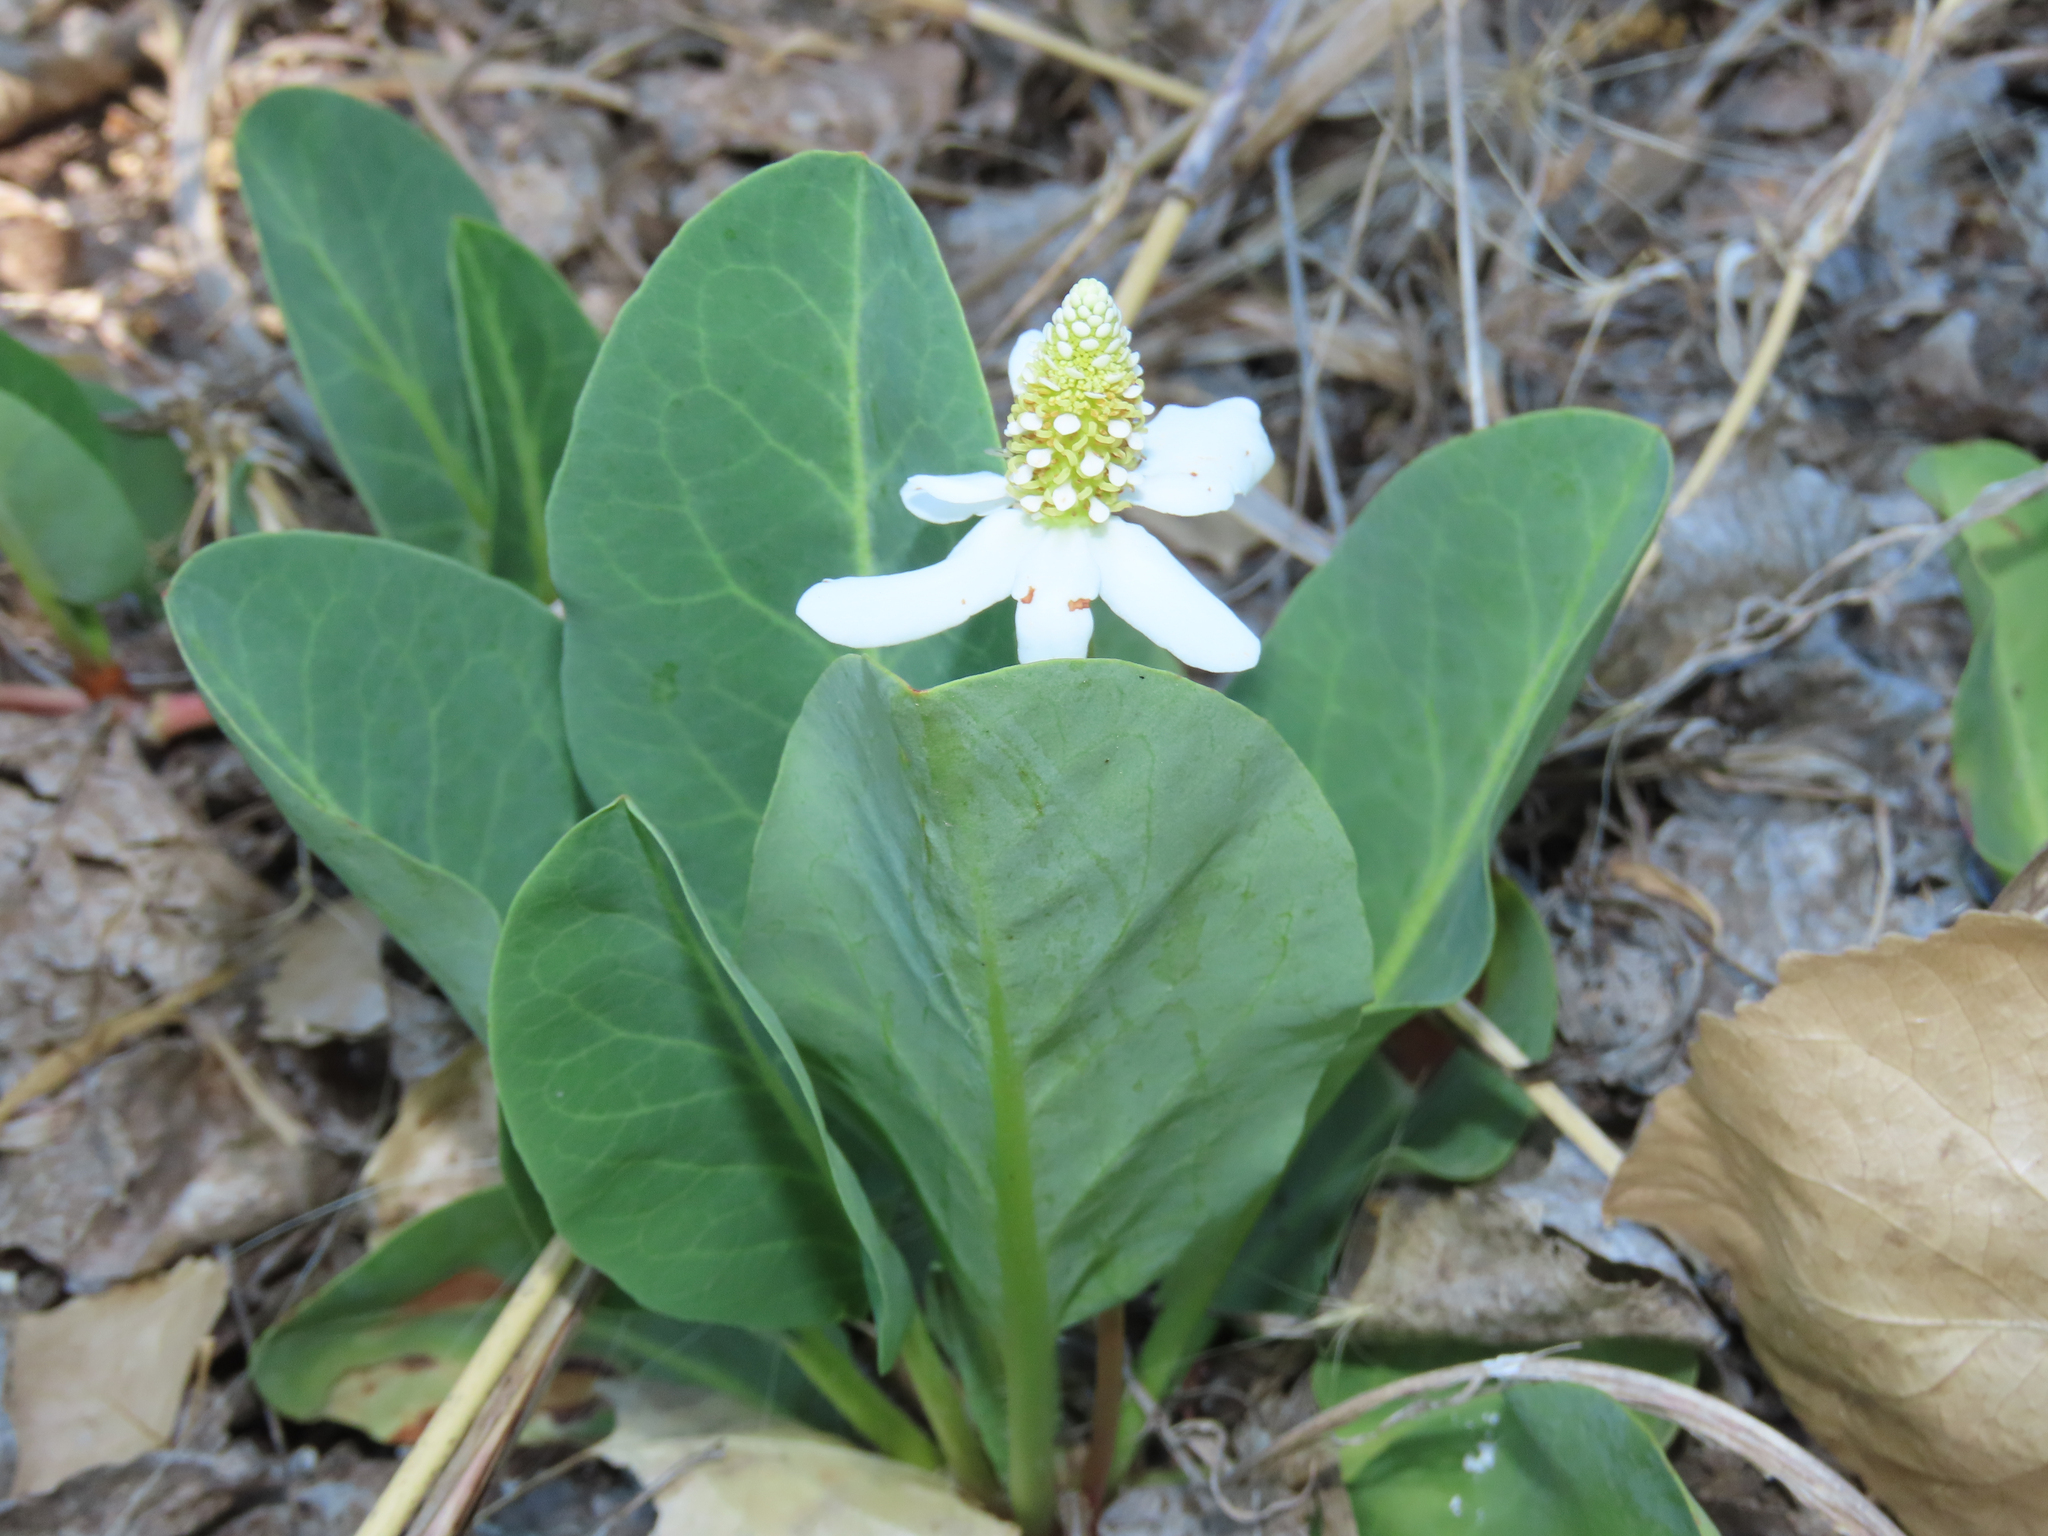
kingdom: Plantae
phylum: Tracheophyta
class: Magnoliopsida
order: Piperales
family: Saururaceae
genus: Anemopsis
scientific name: Anemopsis californica
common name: Apache-beads
